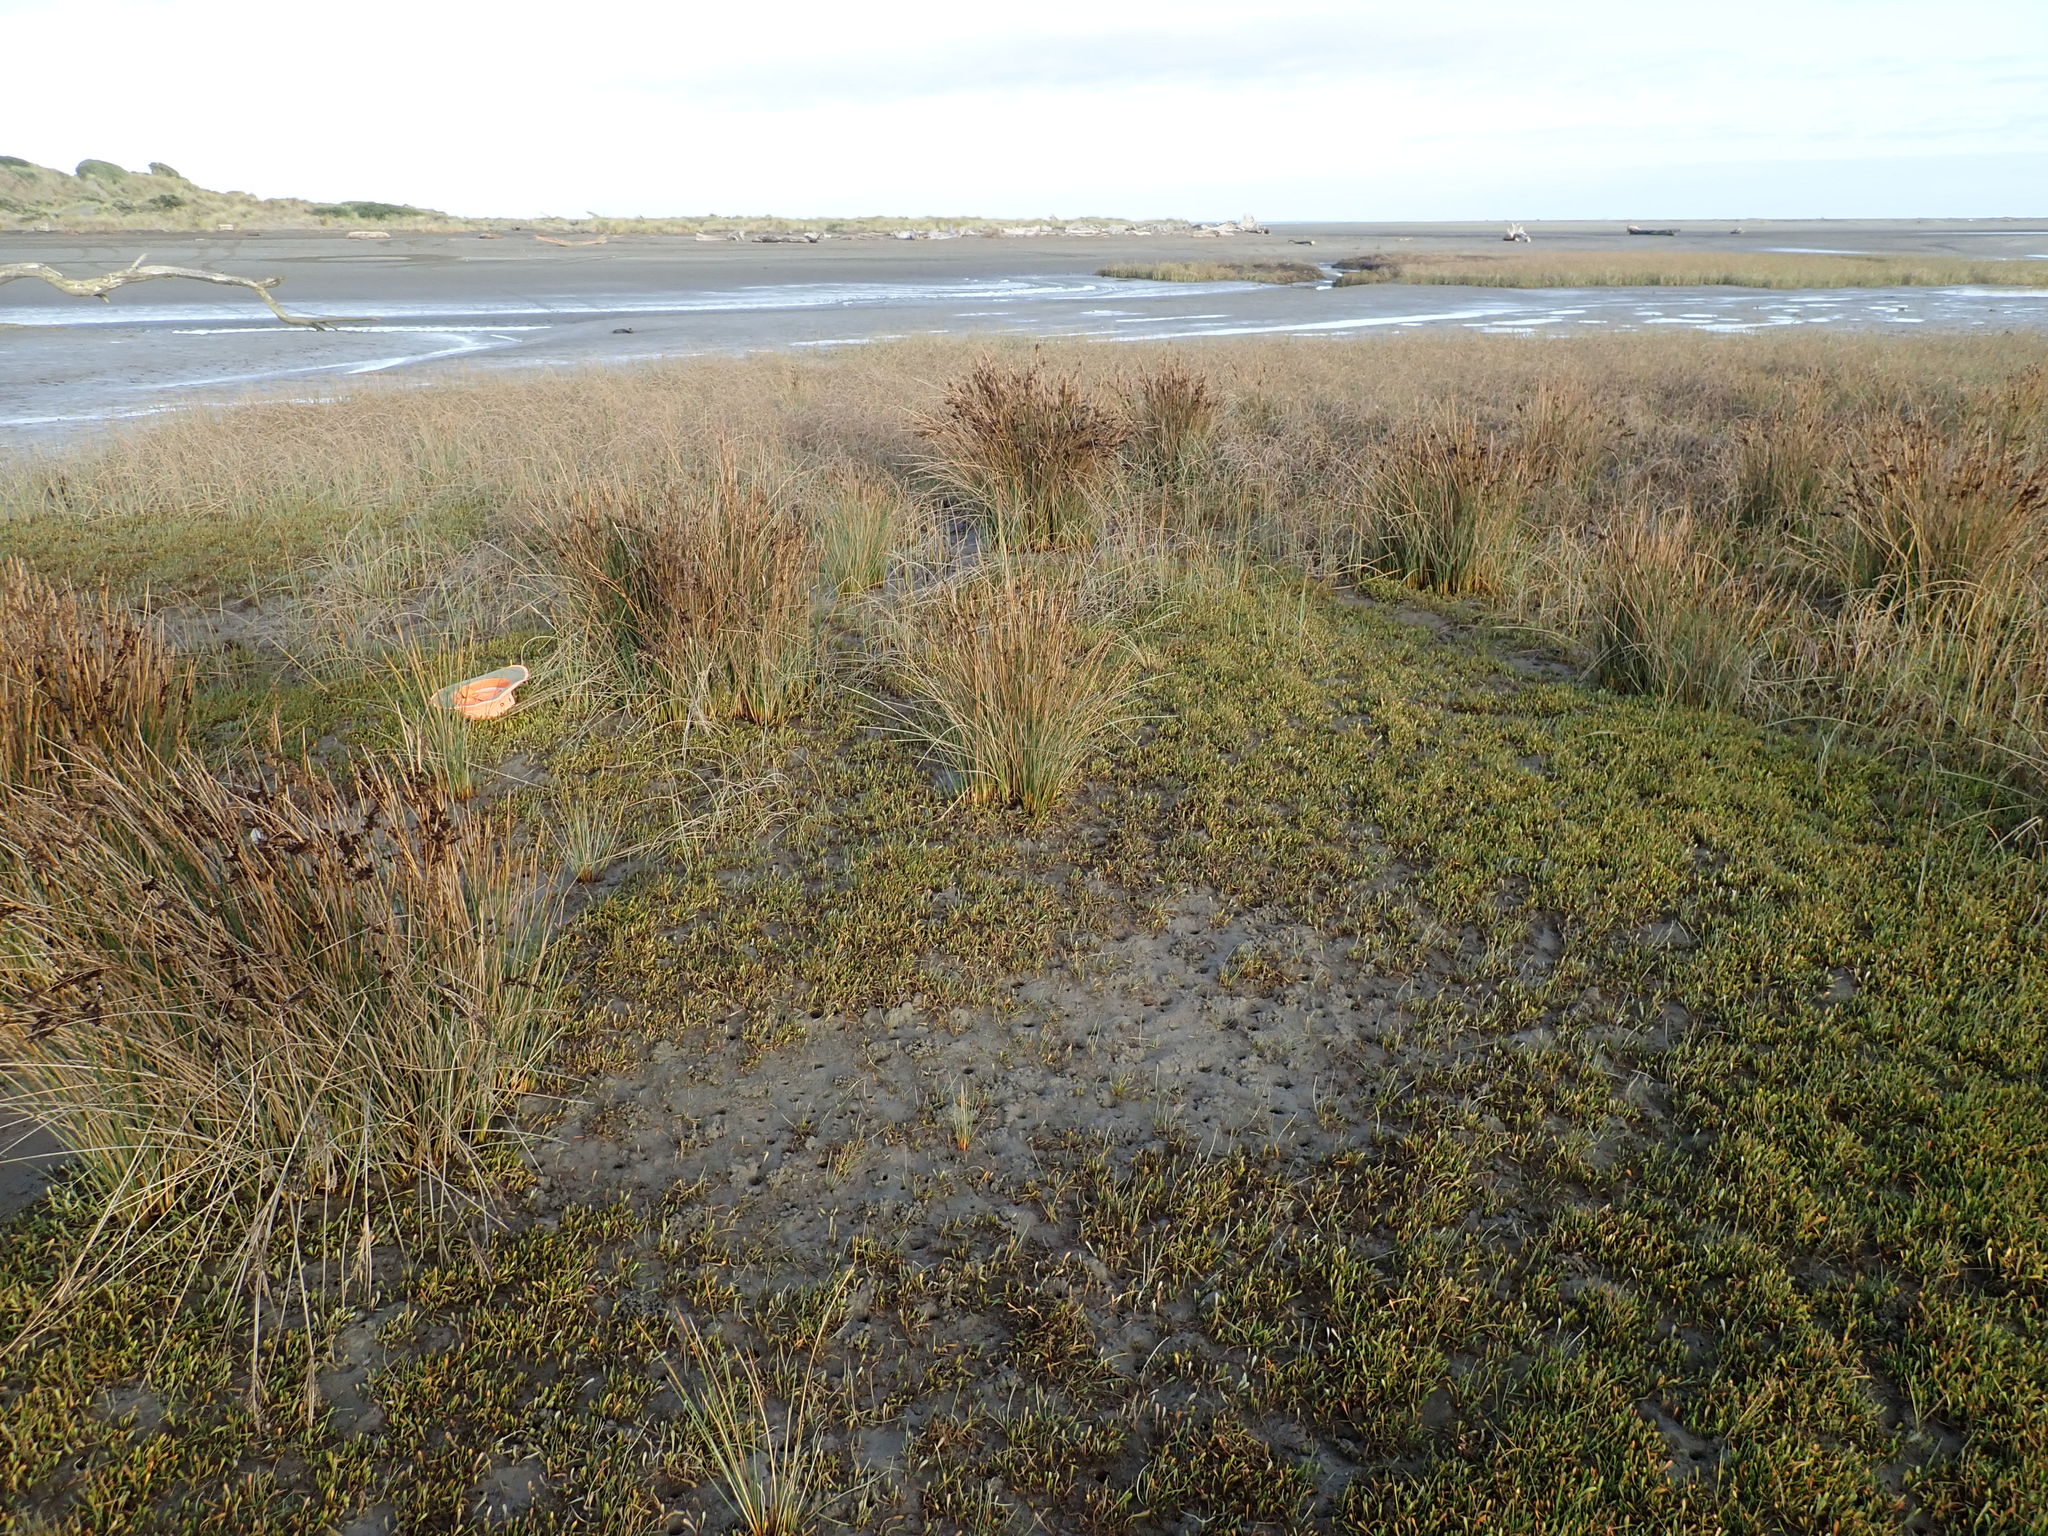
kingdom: Plantae
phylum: Tracheophyta
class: Magnoliopsida
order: Asterales
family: Goodeniaceae
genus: Goodenia
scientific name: Goodenia radicans
